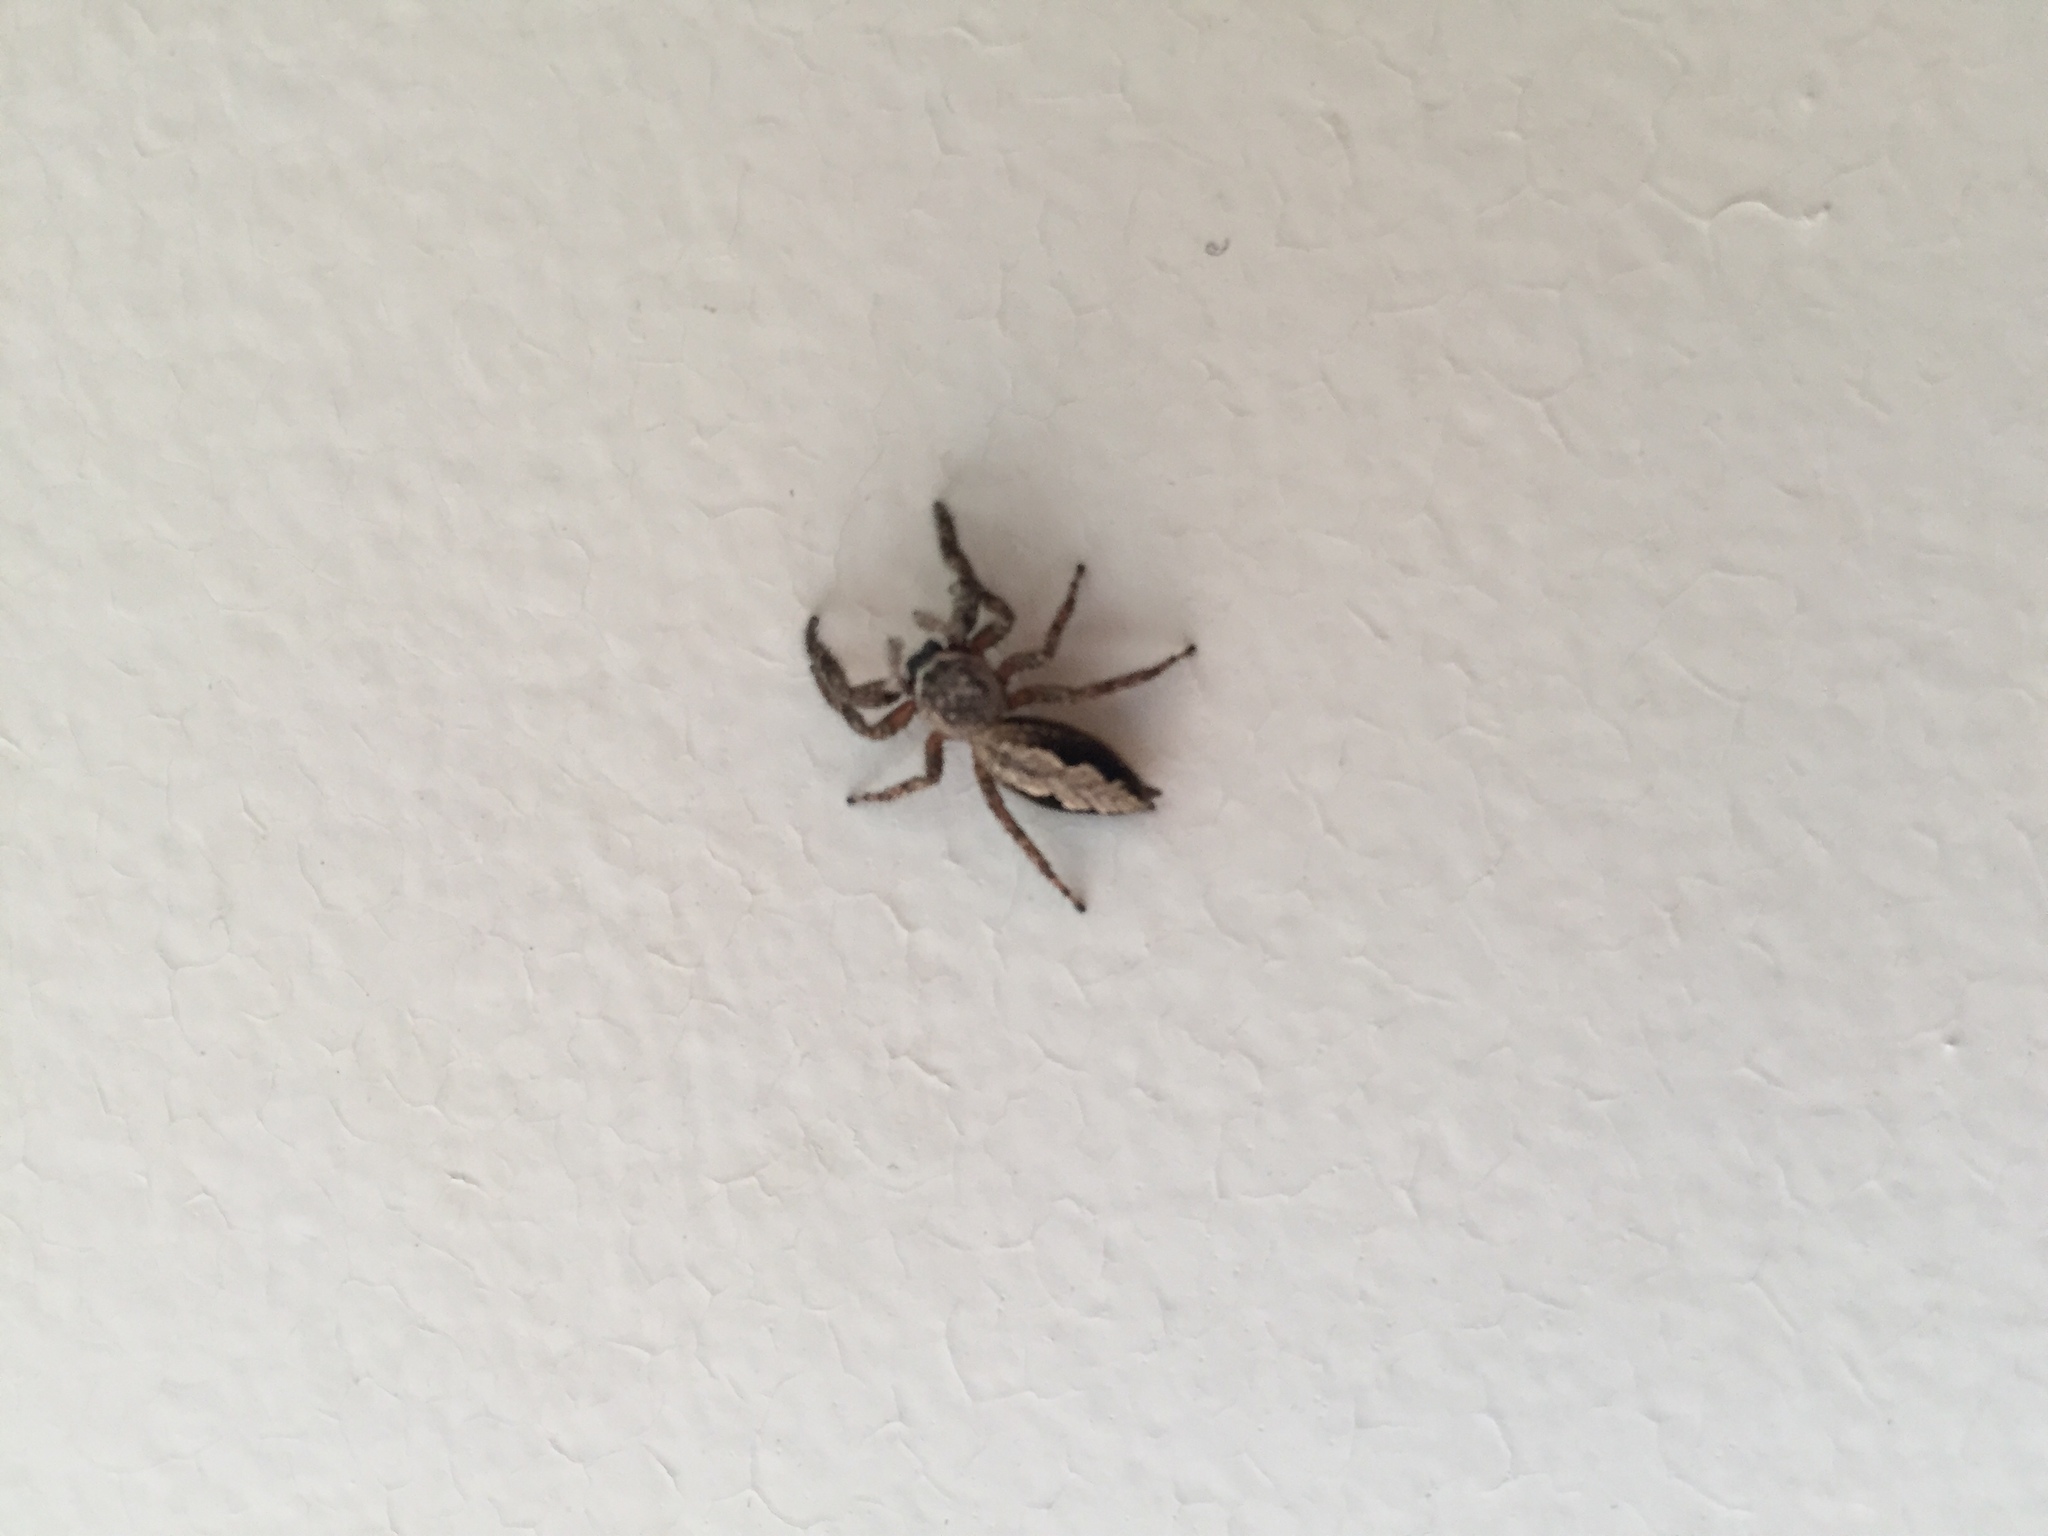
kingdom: Animalia
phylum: Arthropoda
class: Arachnida
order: Araneae
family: Salticidae
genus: Platycryptus
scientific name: Platycryptus undatus
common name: Tan jumping spider
